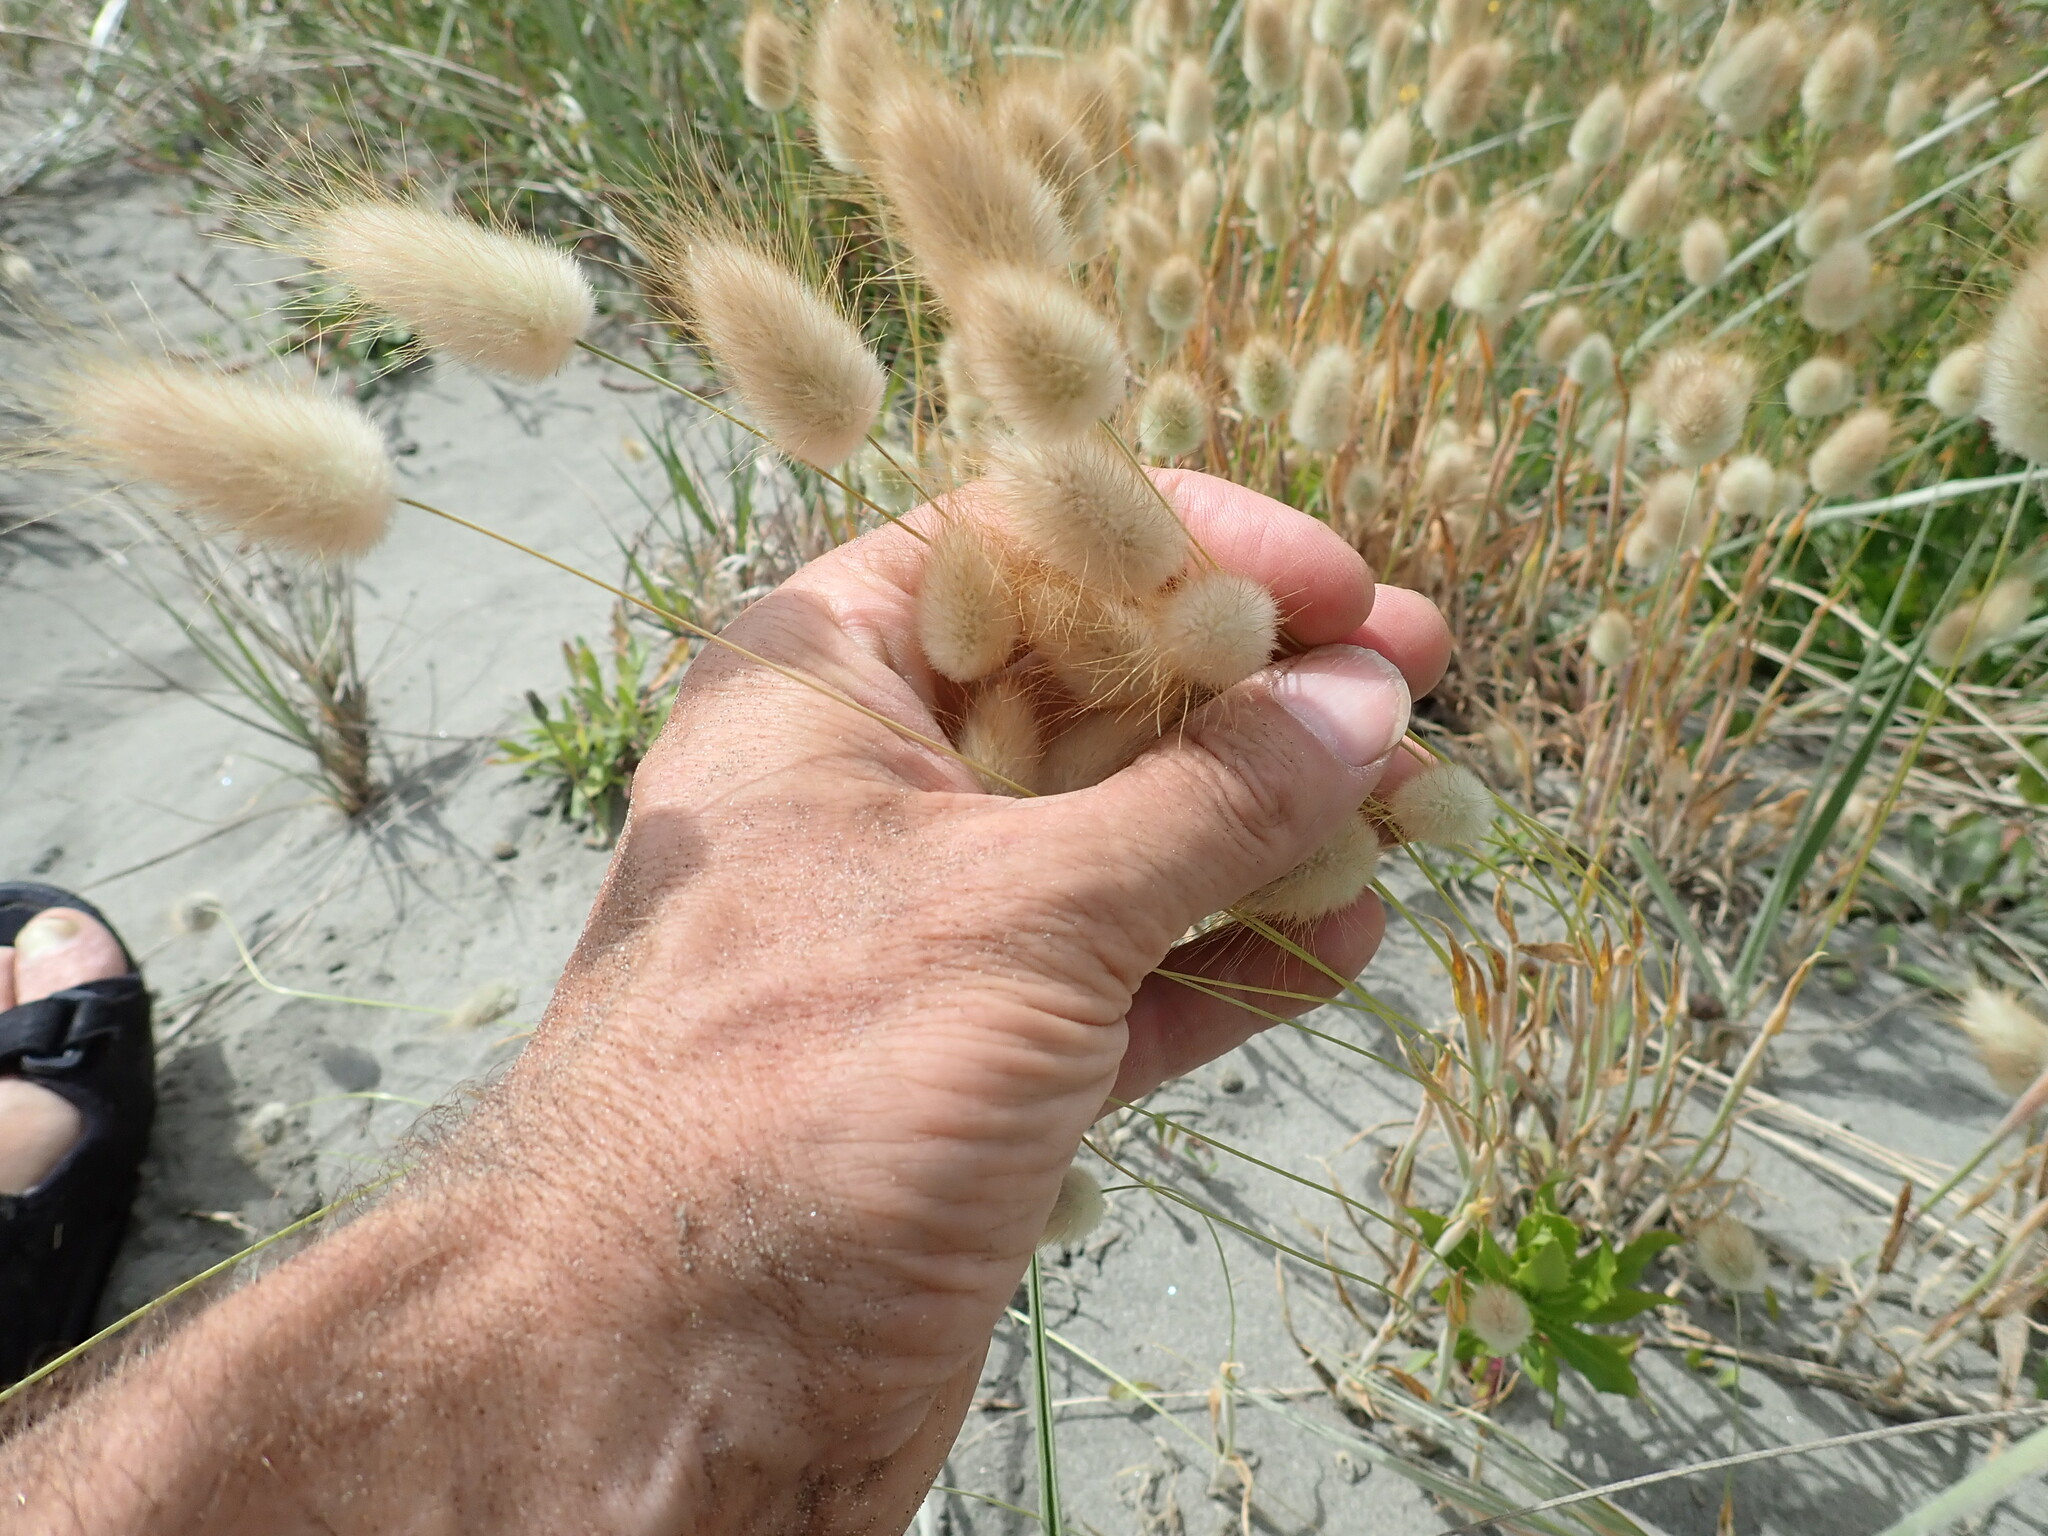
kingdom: Plantae
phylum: Tracheophyta
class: Liliopsida
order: Poales
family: Poaceae
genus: Lagurus
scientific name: Lagurus ovatus
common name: Hare's-tail
